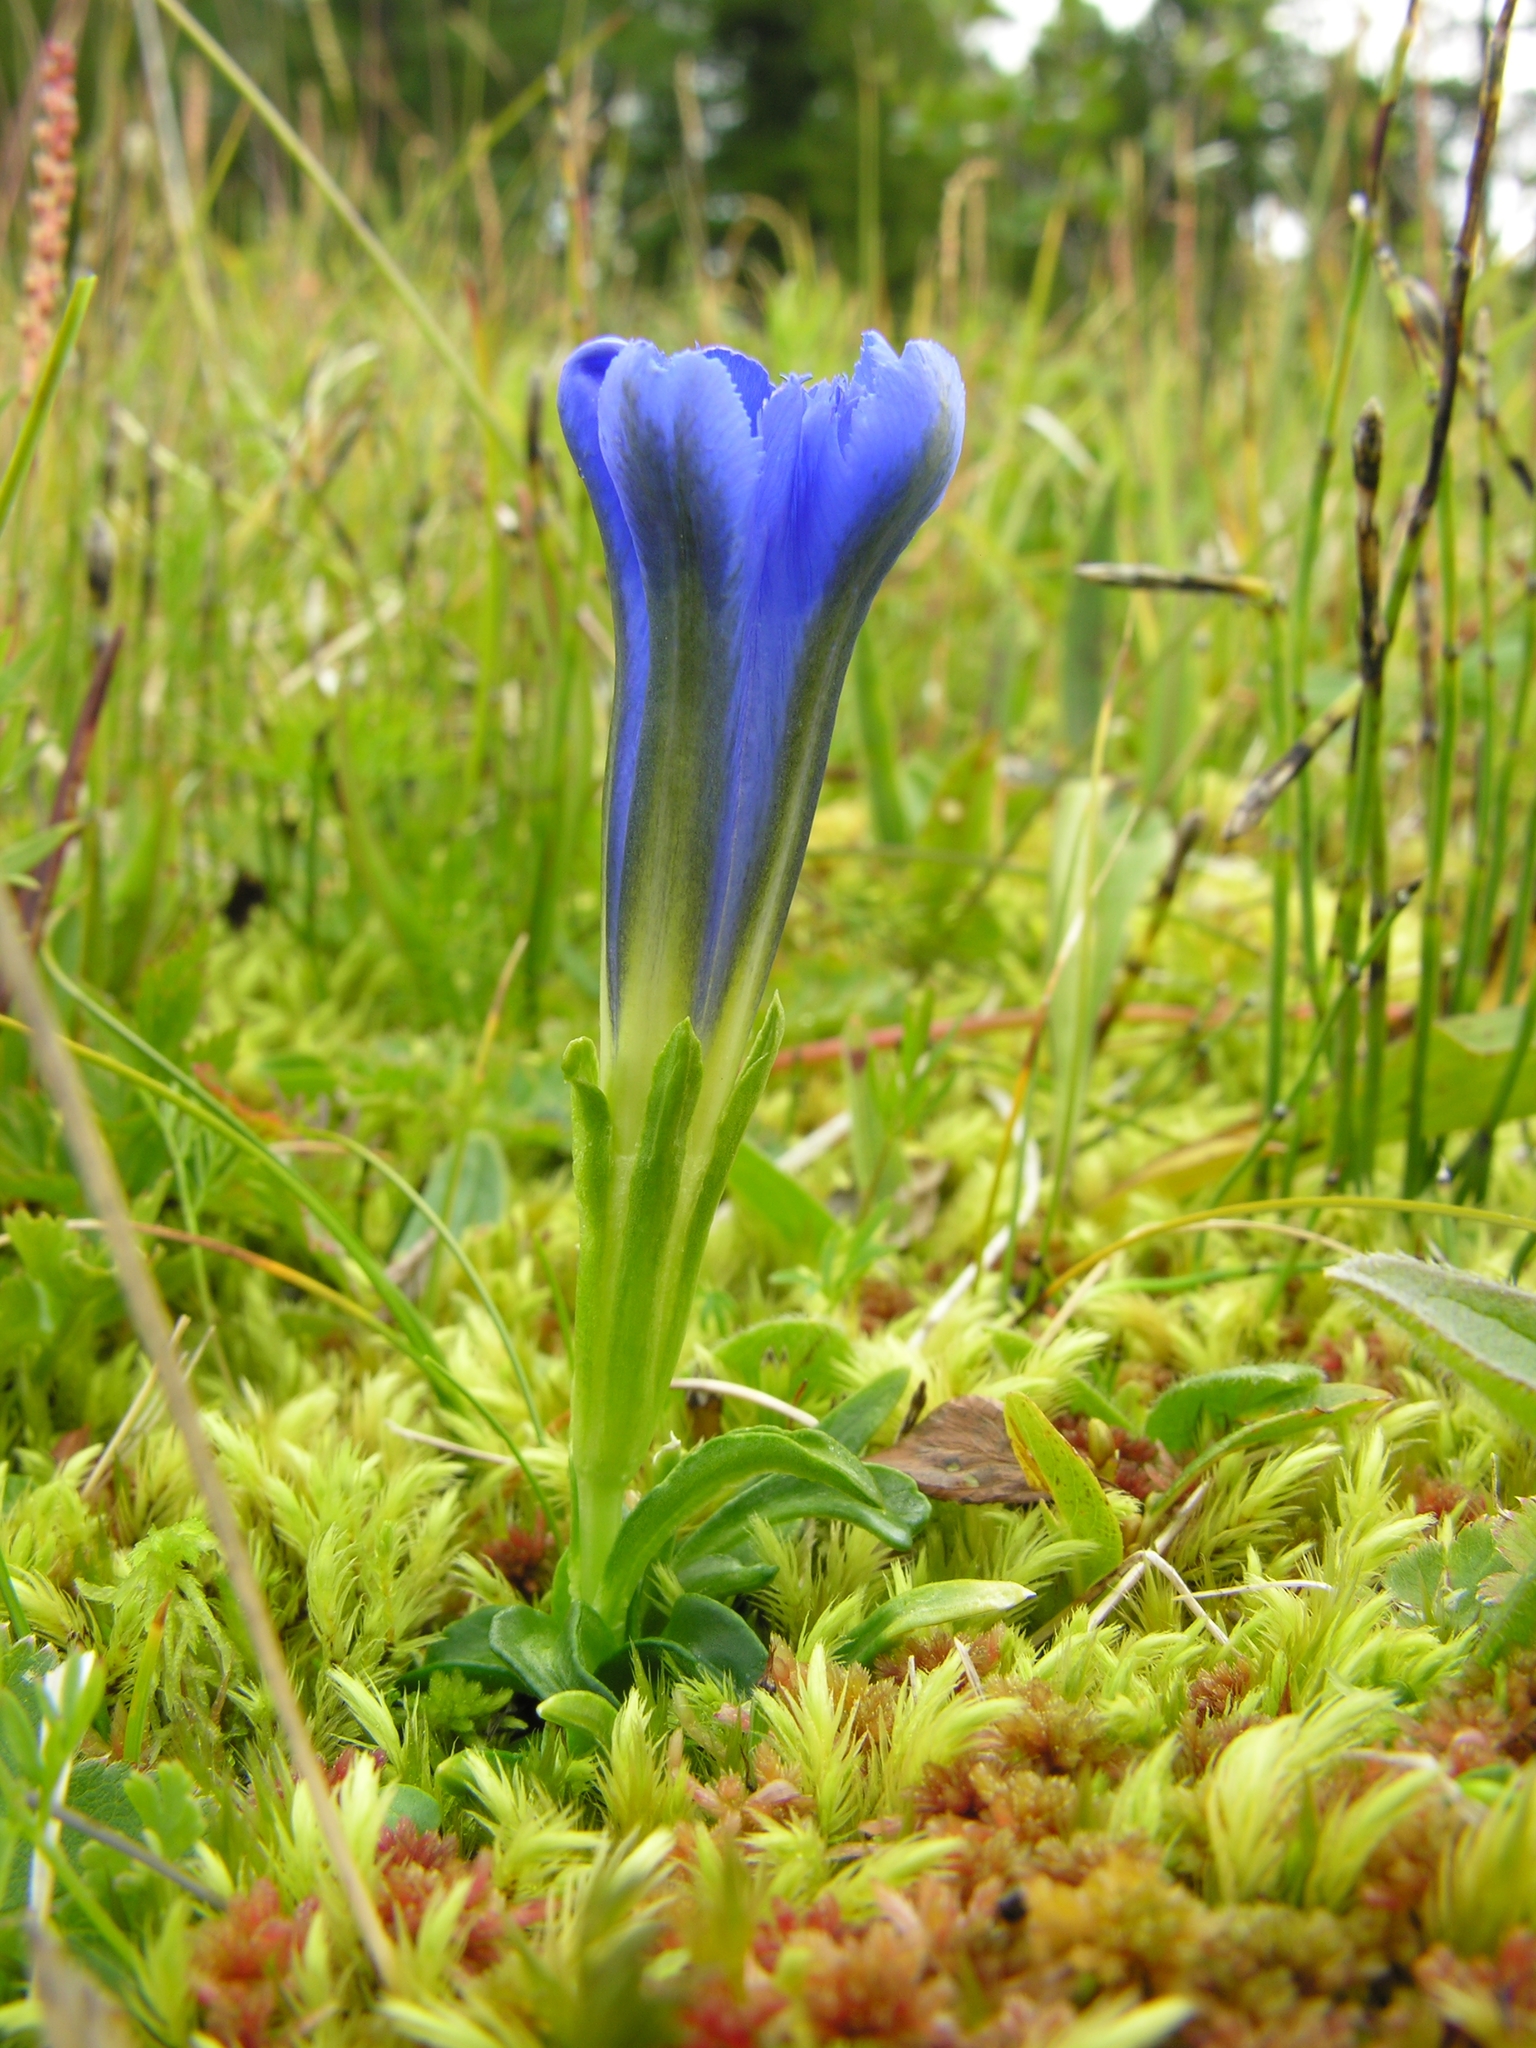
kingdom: Plantae
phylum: Tracheophyta
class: Magnoliopsida
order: Gentianales
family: Gentianaceae
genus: Gentiana
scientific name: Gentiana grandiflora
